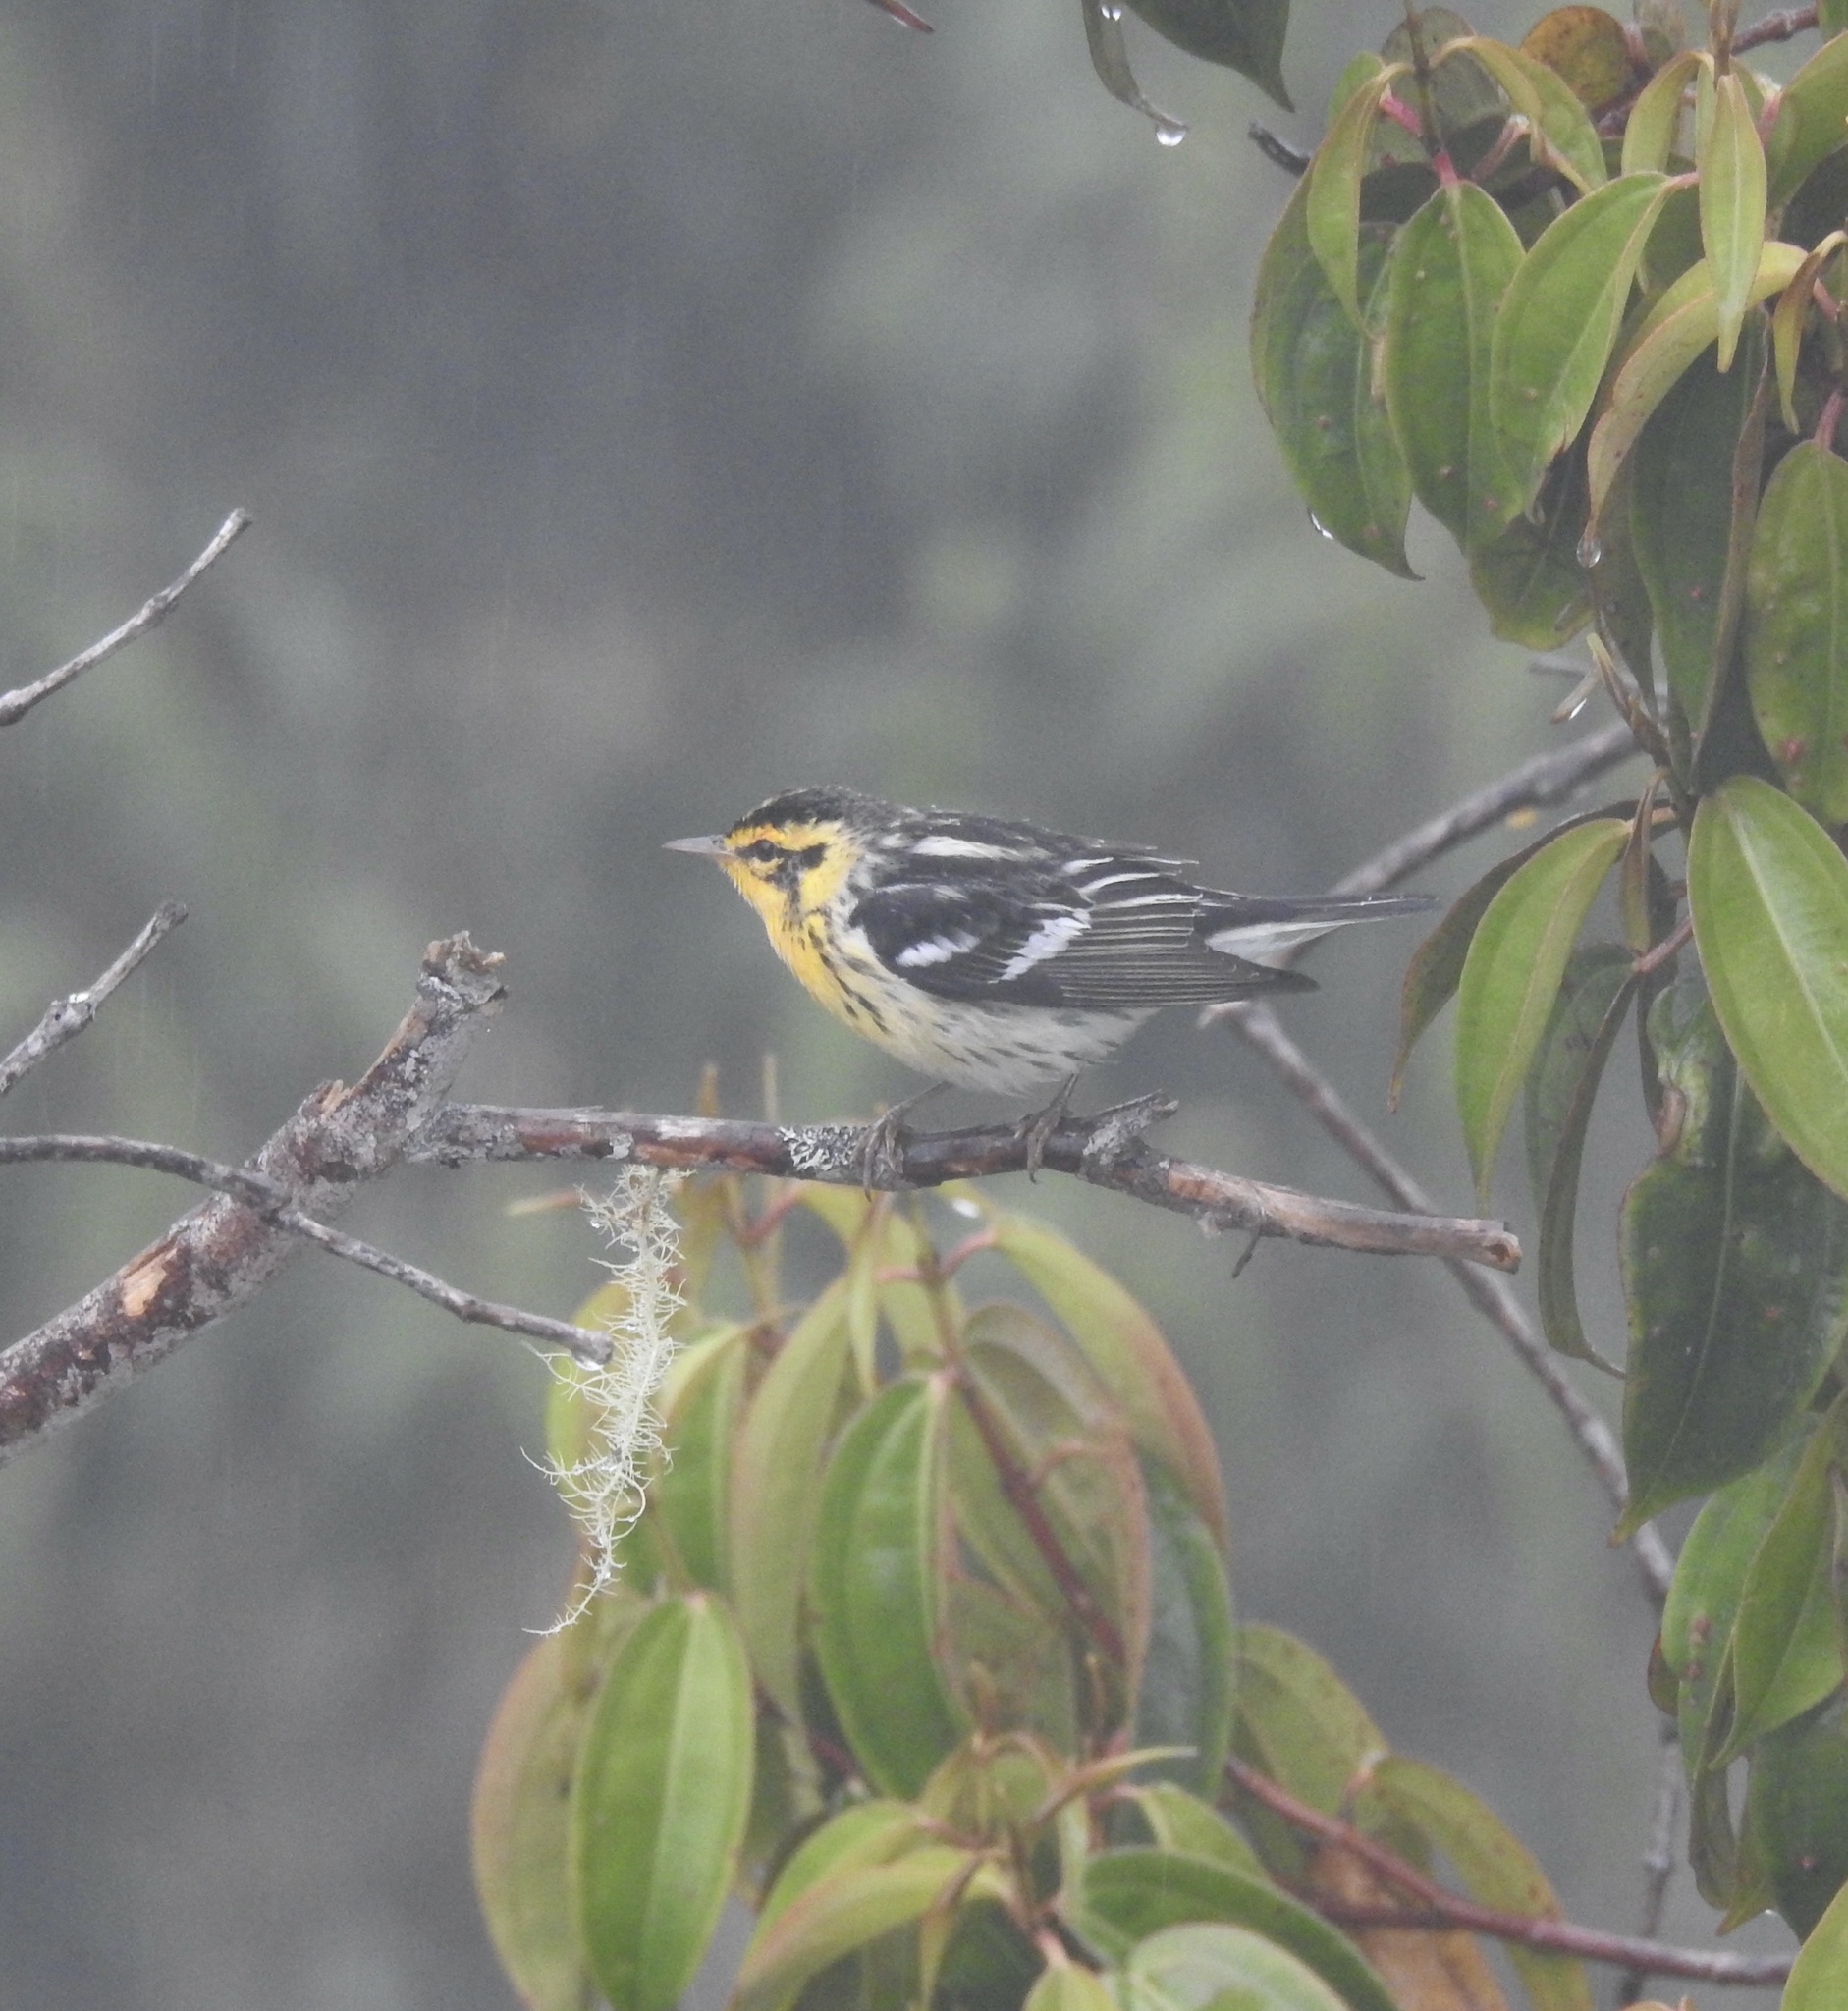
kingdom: Animalia
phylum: Chordata
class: Aves
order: Passeriformes
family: Parulidae
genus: Setophaga
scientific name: Setophaga fusca
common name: Blackburnian warbler
